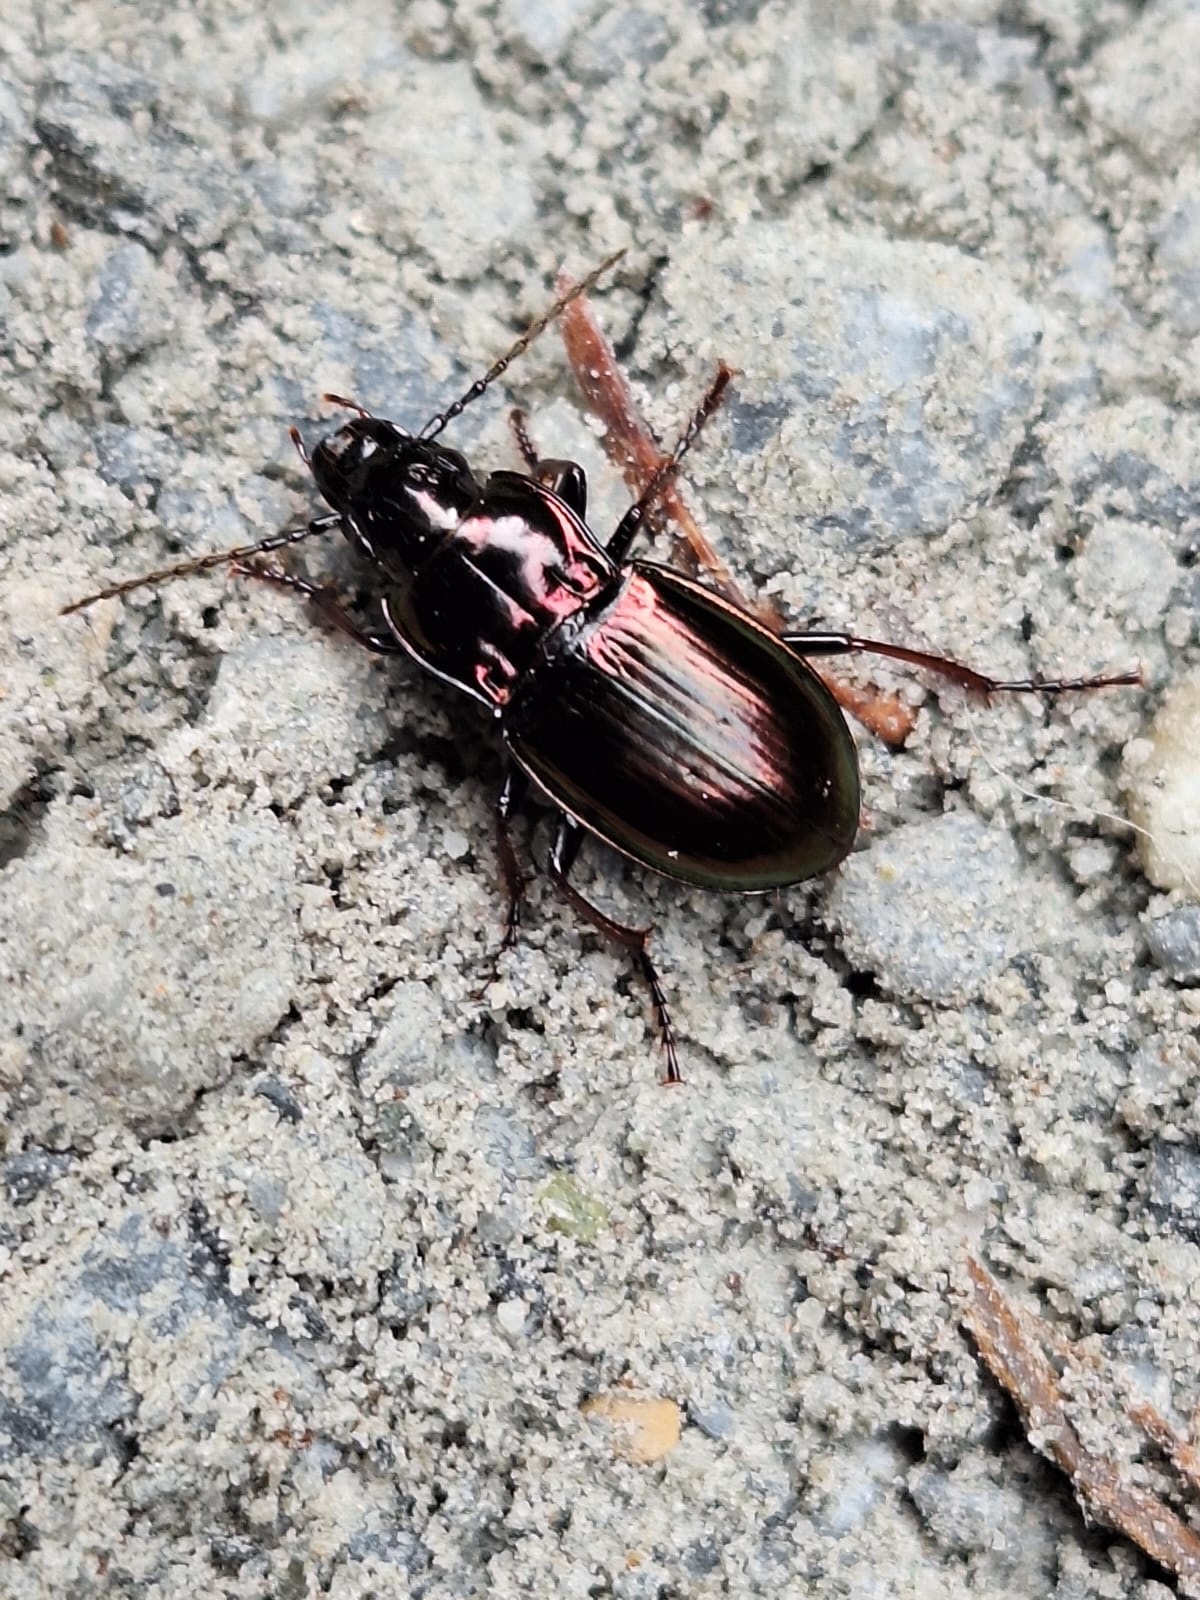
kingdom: Animalia
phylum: Arthropoda
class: Insecta
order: Coleoptera
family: Carabidae
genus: Pterostichus
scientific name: Pterostichus burmeisteri
